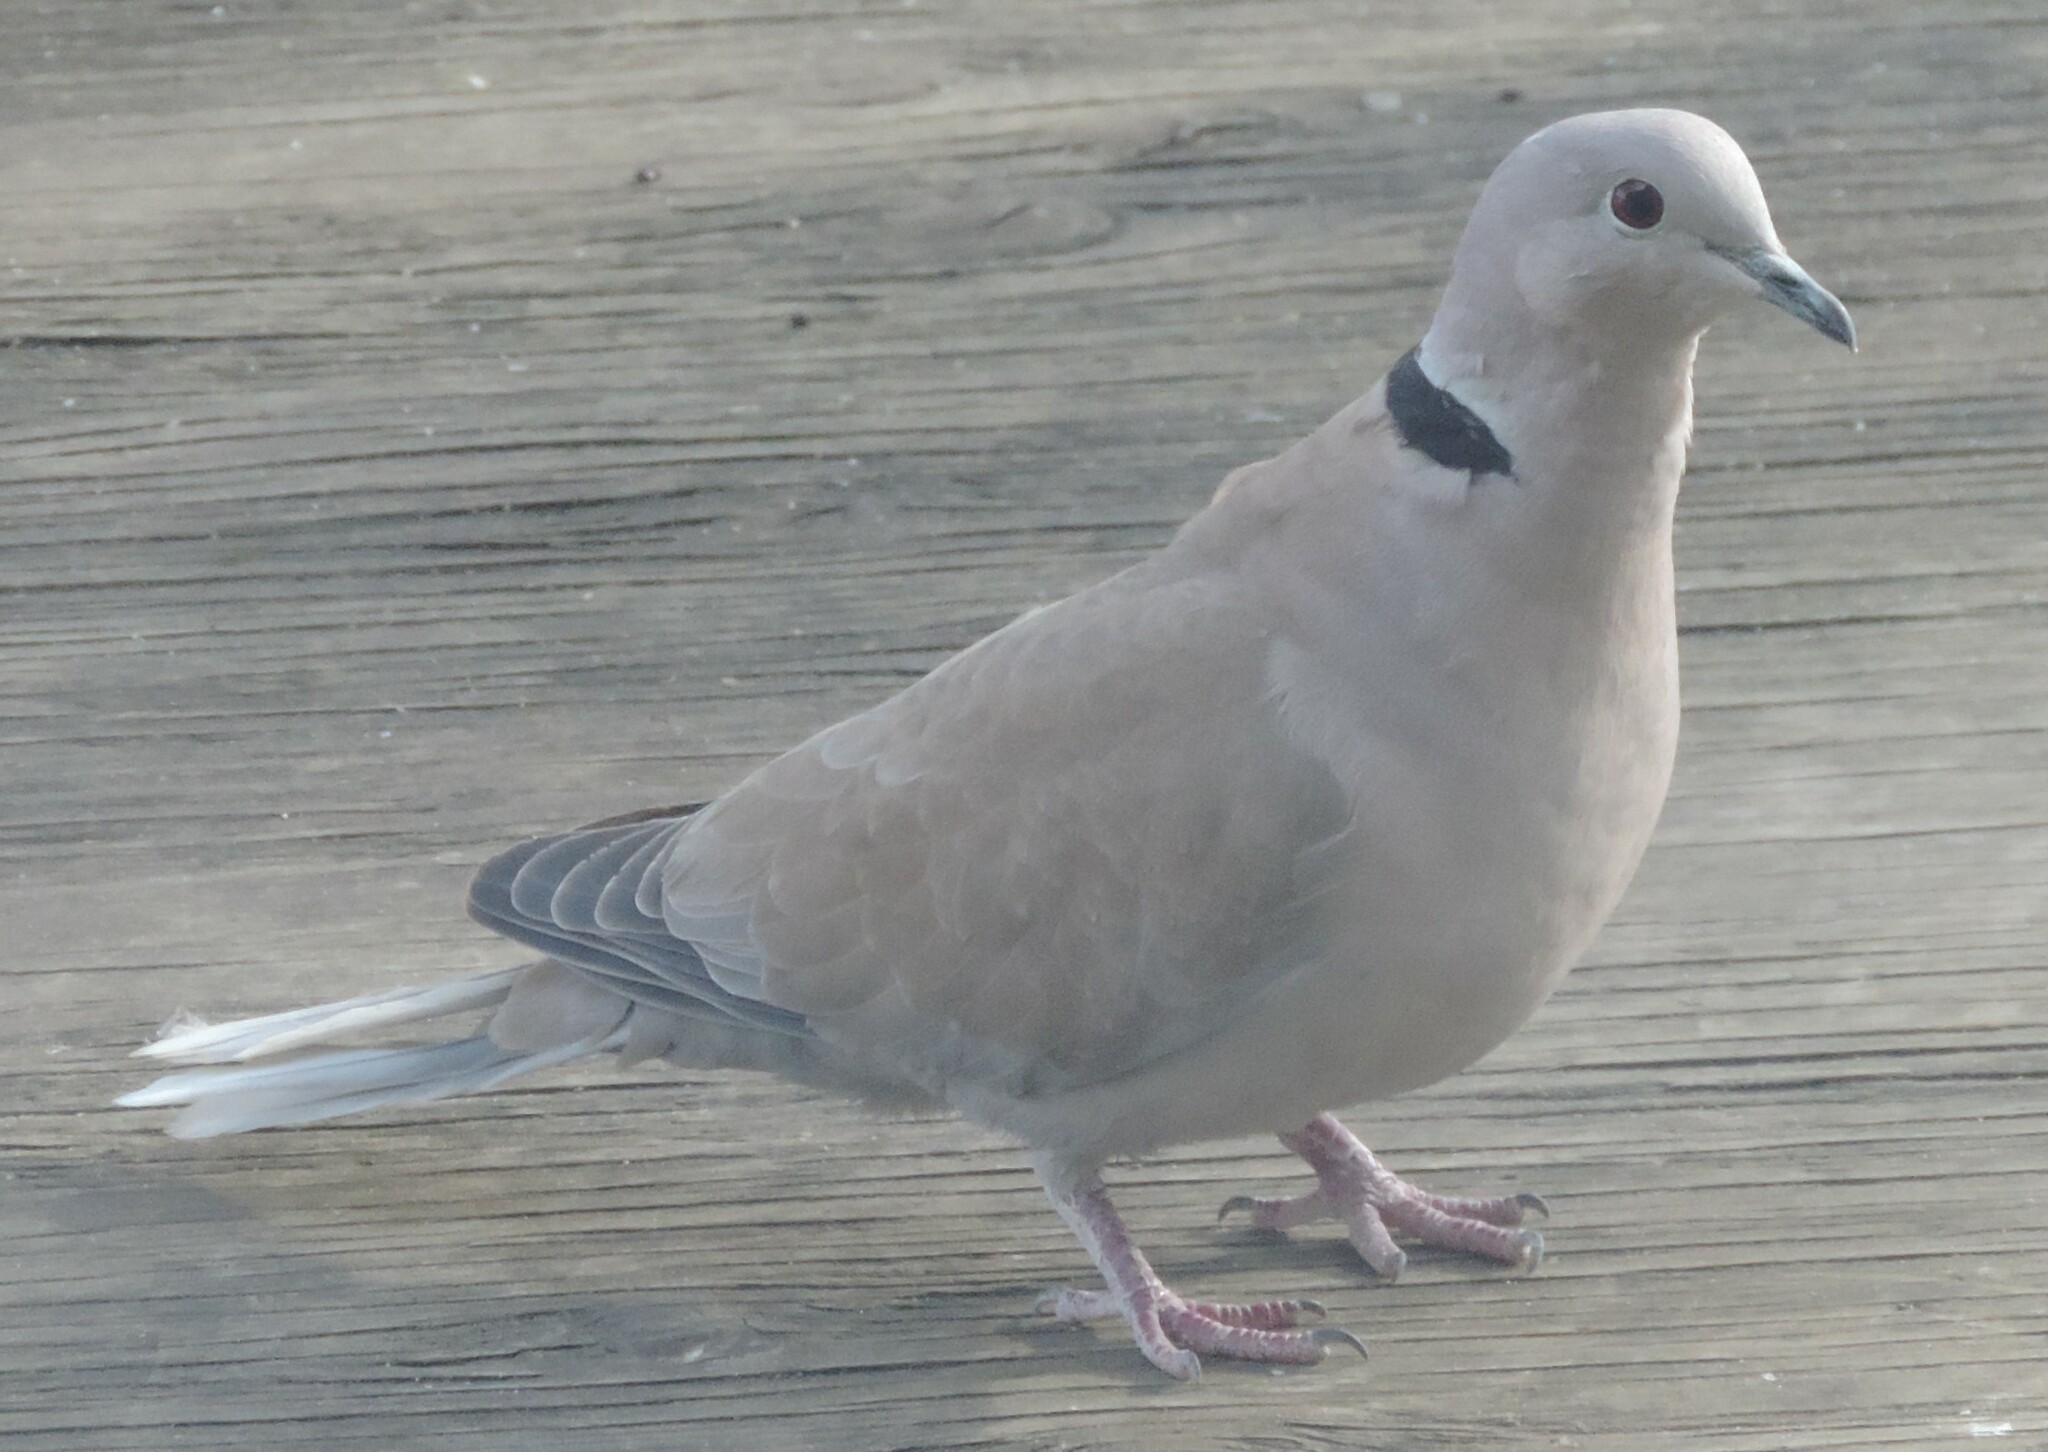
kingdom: Animalia
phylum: Chordata
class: Aves
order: Columbiformes
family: Columbidae
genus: Streptopelia
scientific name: Streptopelia decaocto
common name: Eurasian collared dove
